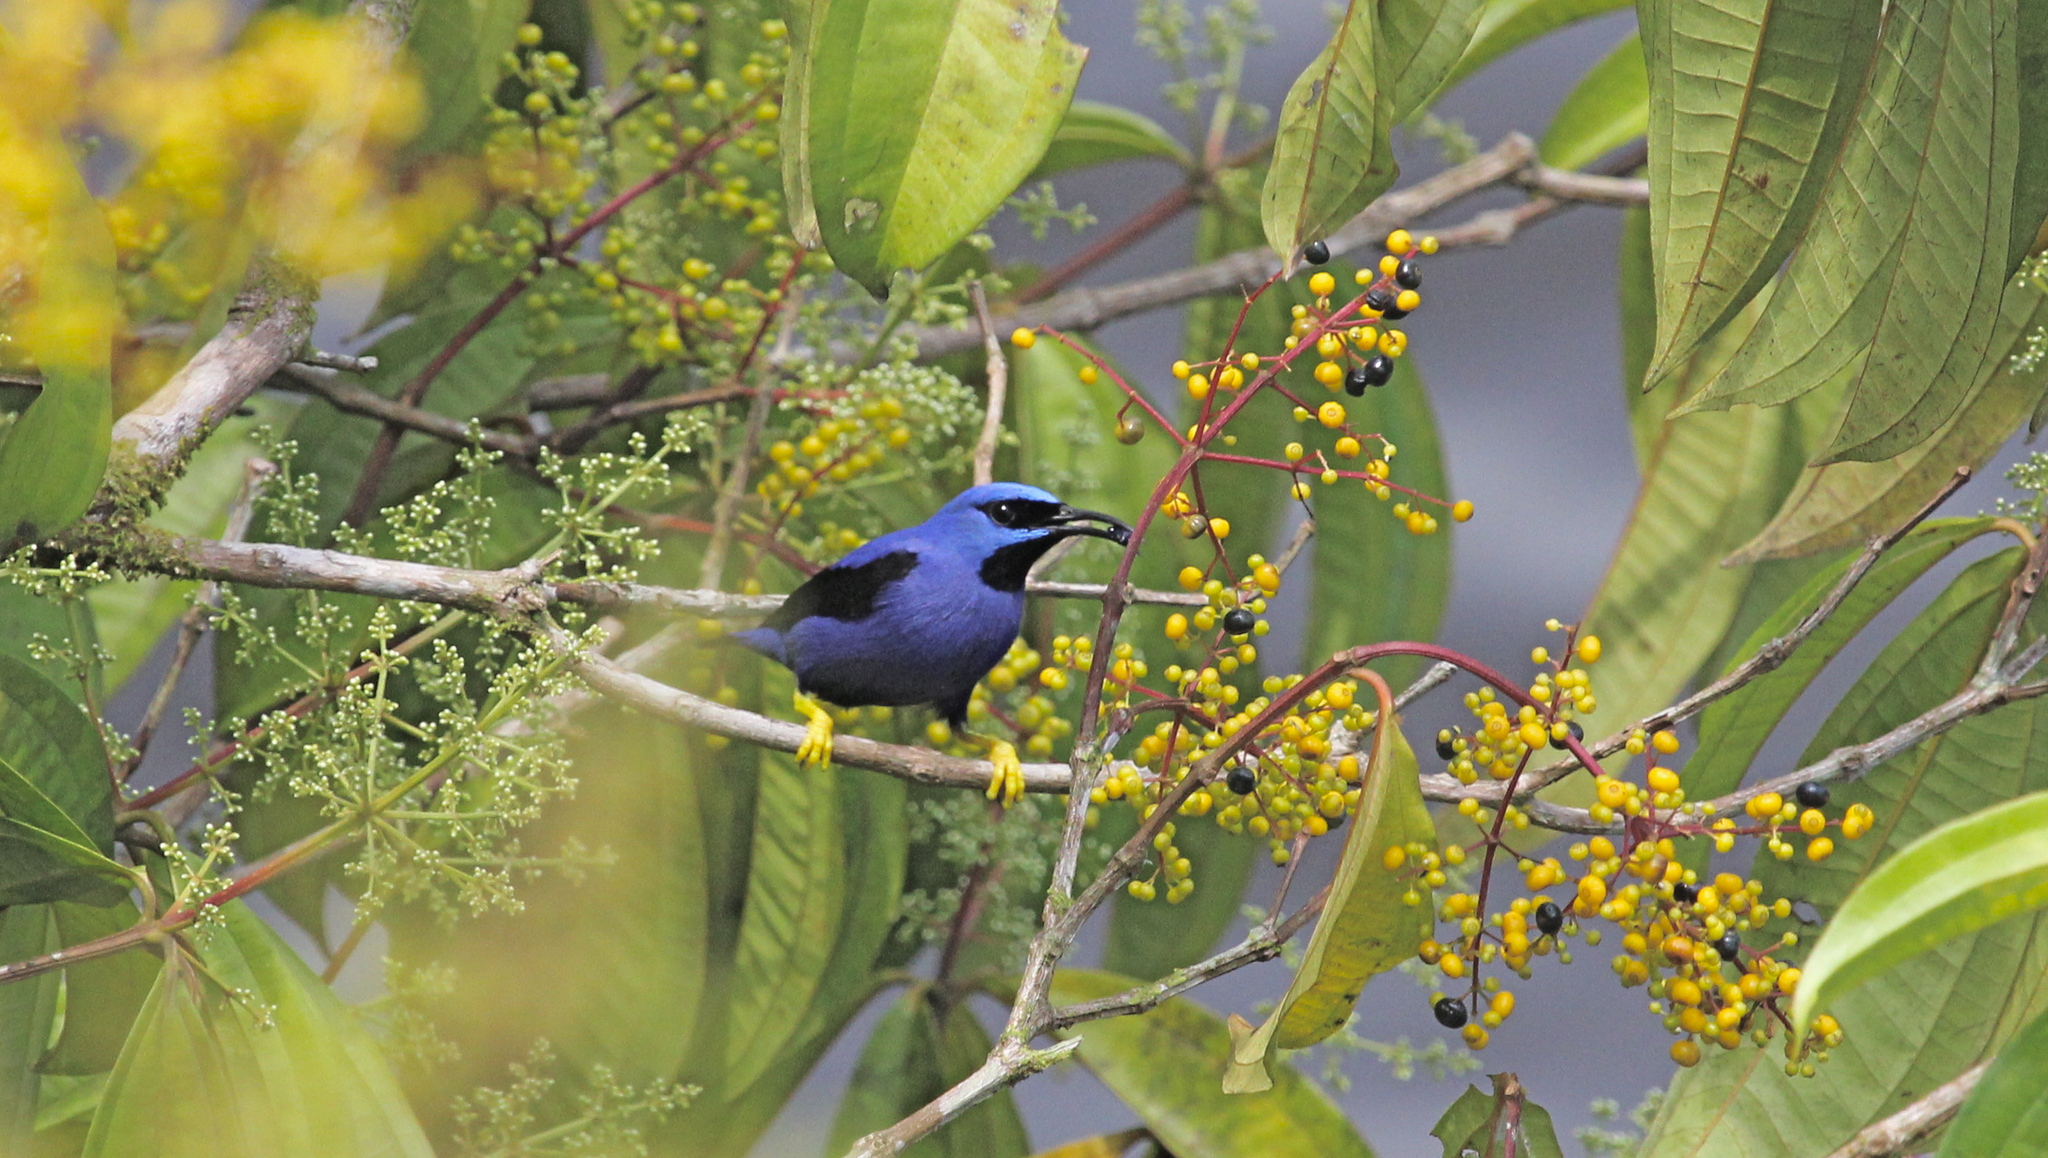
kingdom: Animalia
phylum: Chordata
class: Aves
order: Passeriformes
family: Thraupidae
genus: Cyanerpes
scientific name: Cyanerpes caeruleus
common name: Purple honeycreeper
